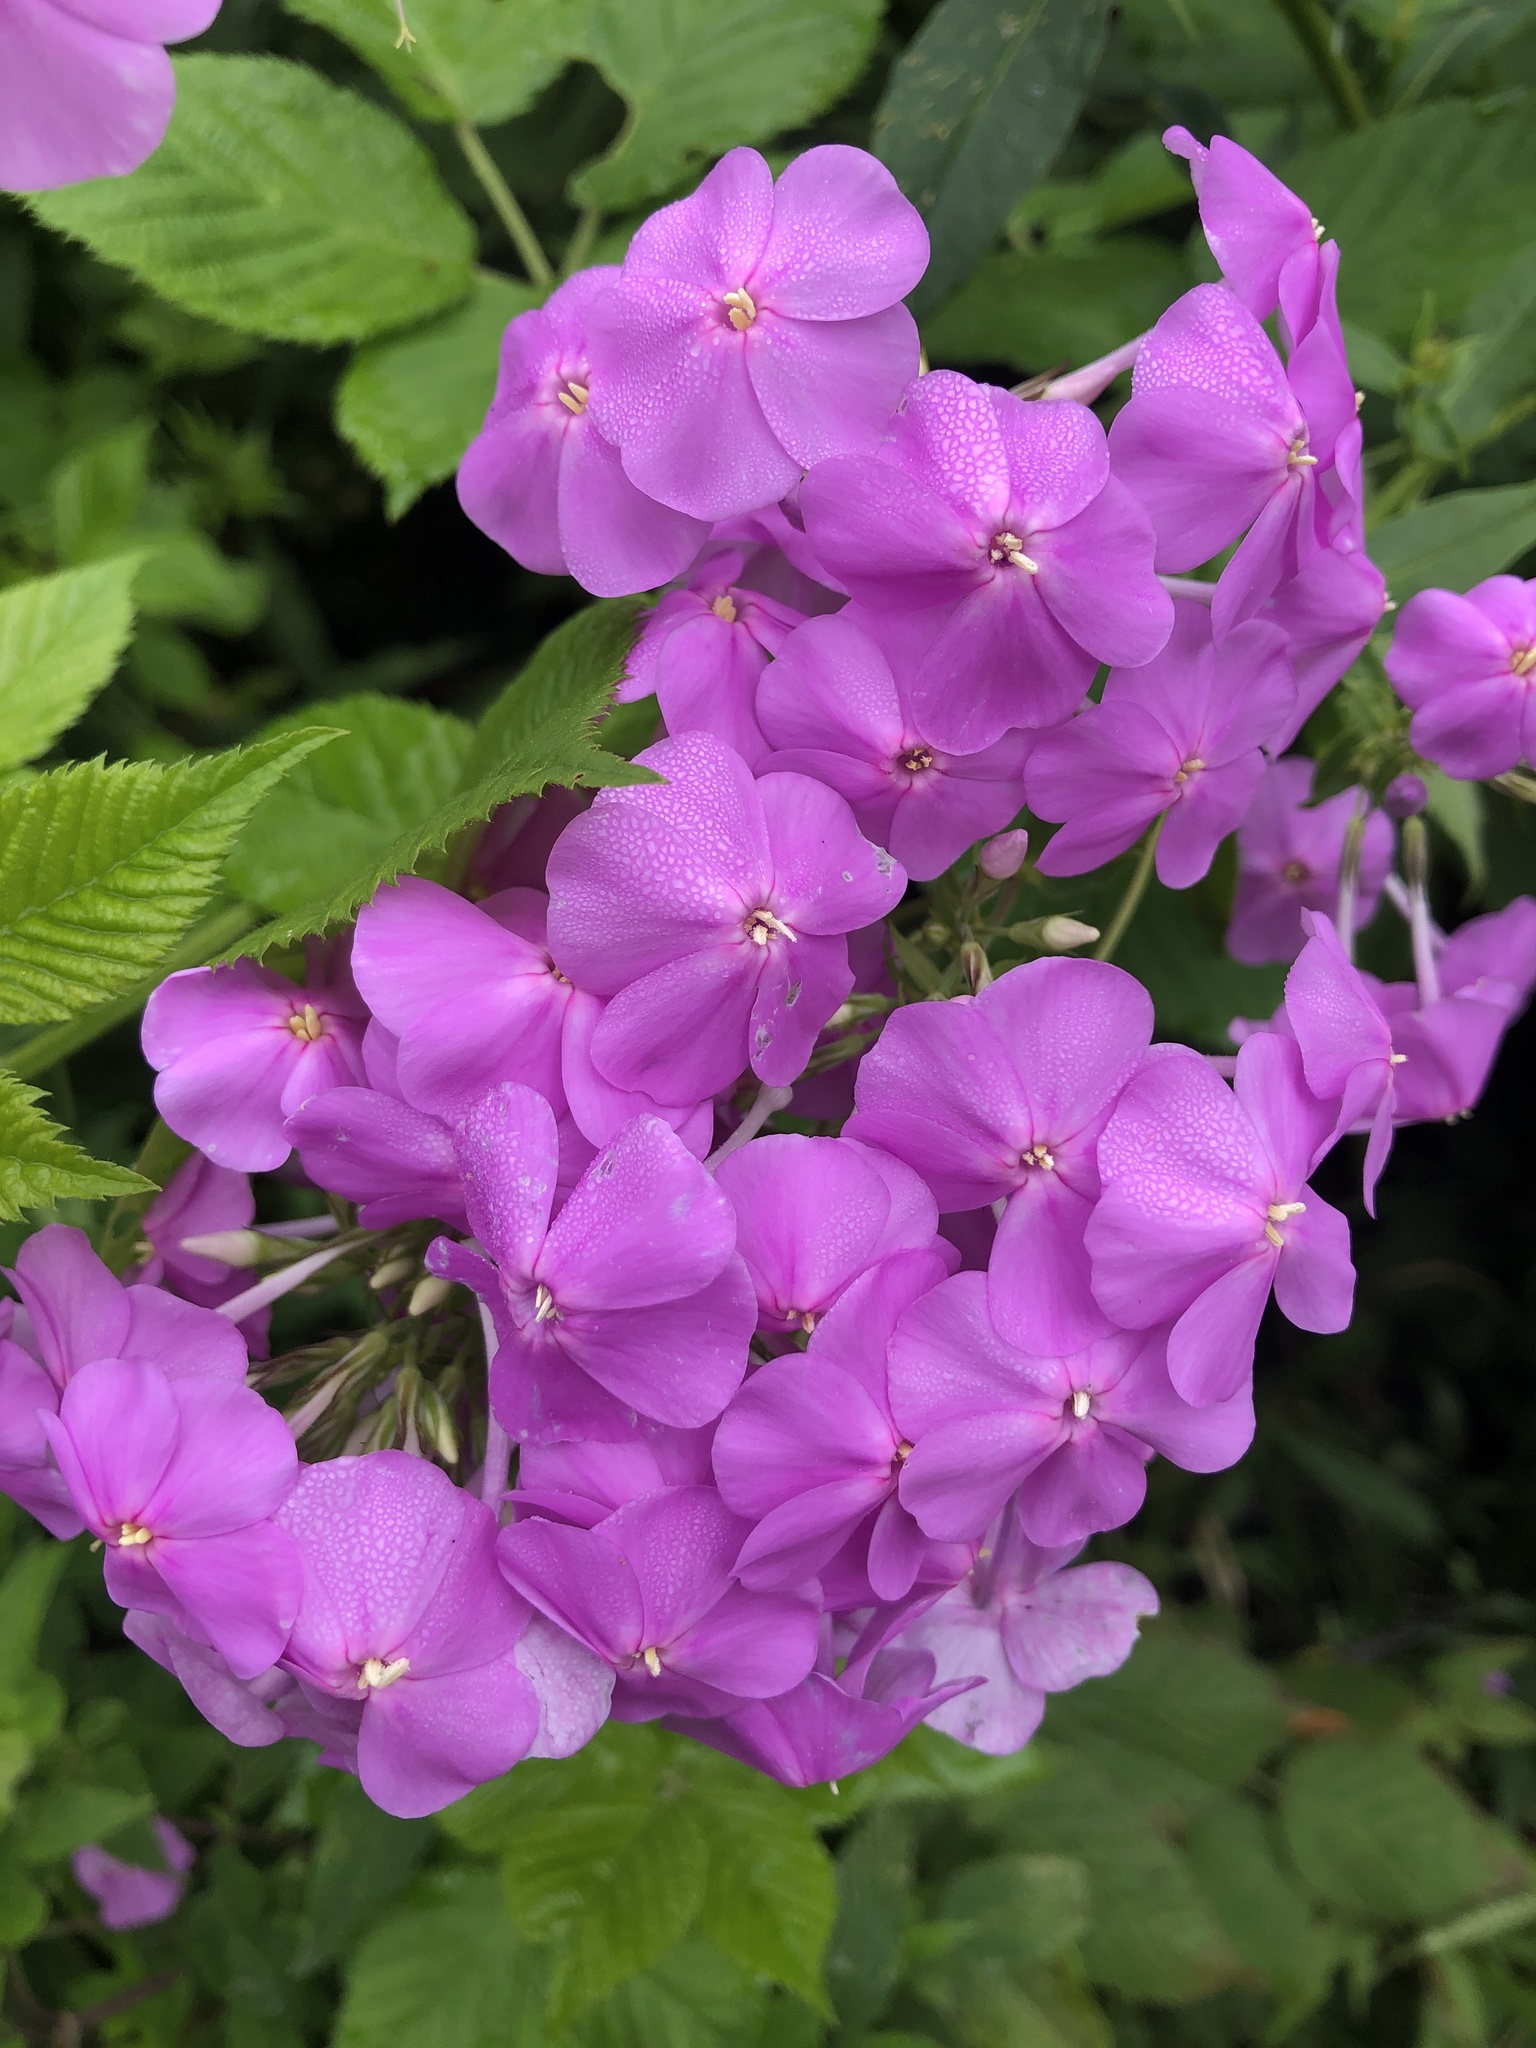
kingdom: Plantae
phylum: Tracheophyta
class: Magnoliopsida
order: Ericales
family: Polemoniaceae
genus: Phlox
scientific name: Phlox paniculata
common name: Fall phlox
